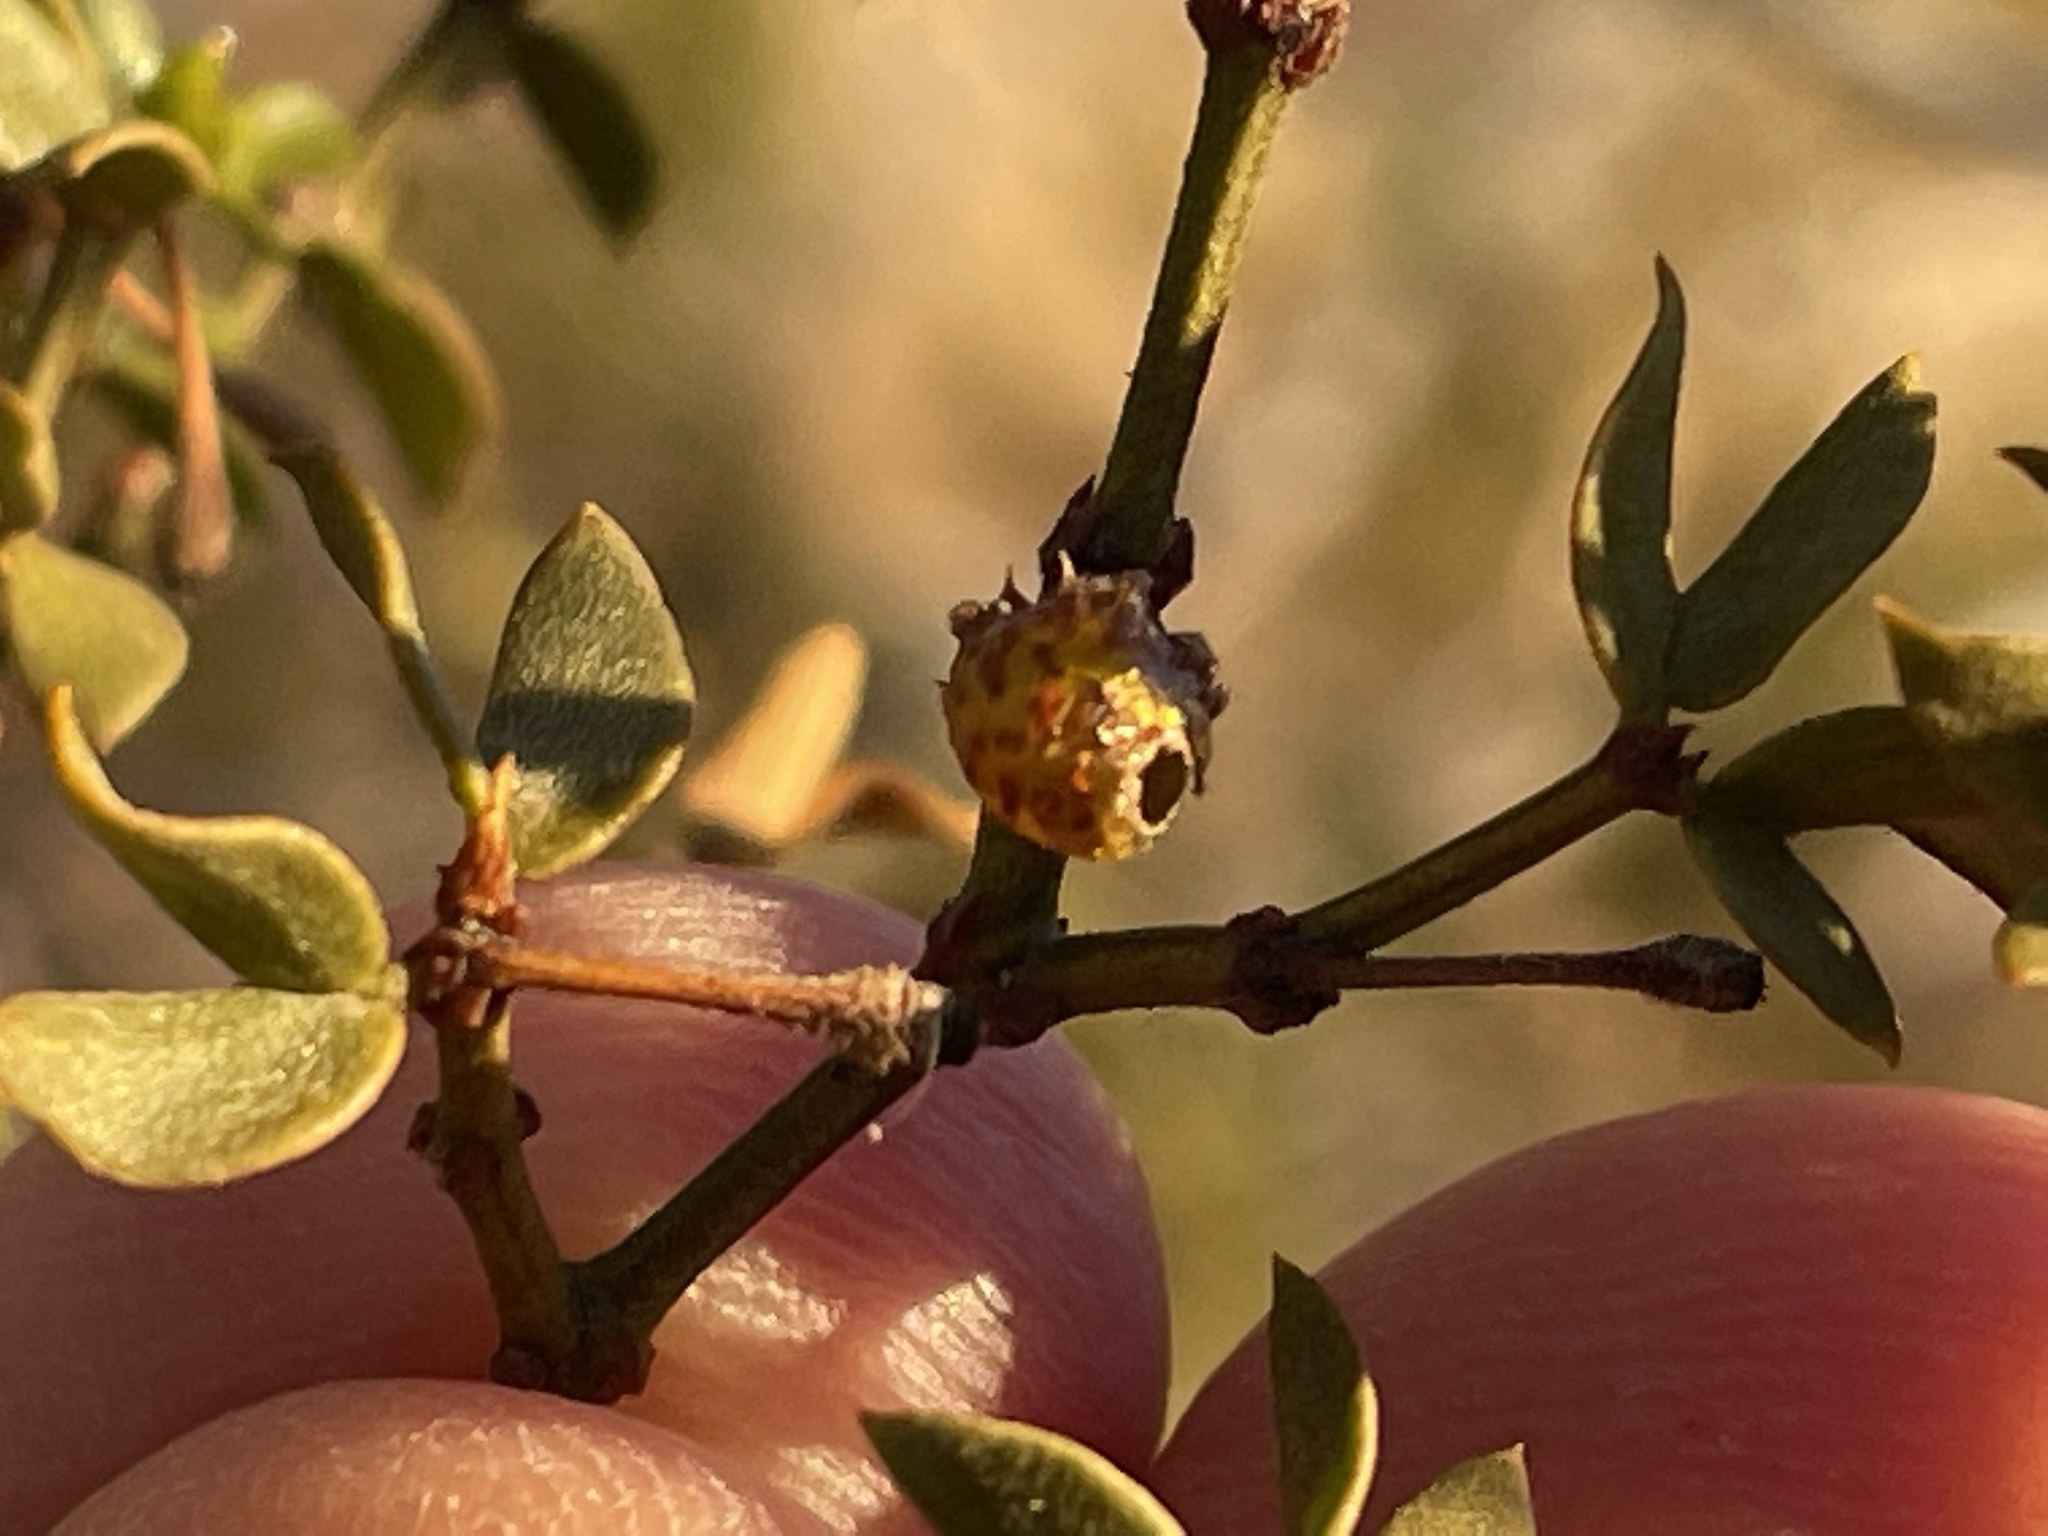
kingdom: Animalia
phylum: Arthropoda
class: Insecta
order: Diptera
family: Cecidomyiidae
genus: Asphondylia
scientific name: Asphondylia resinosa
